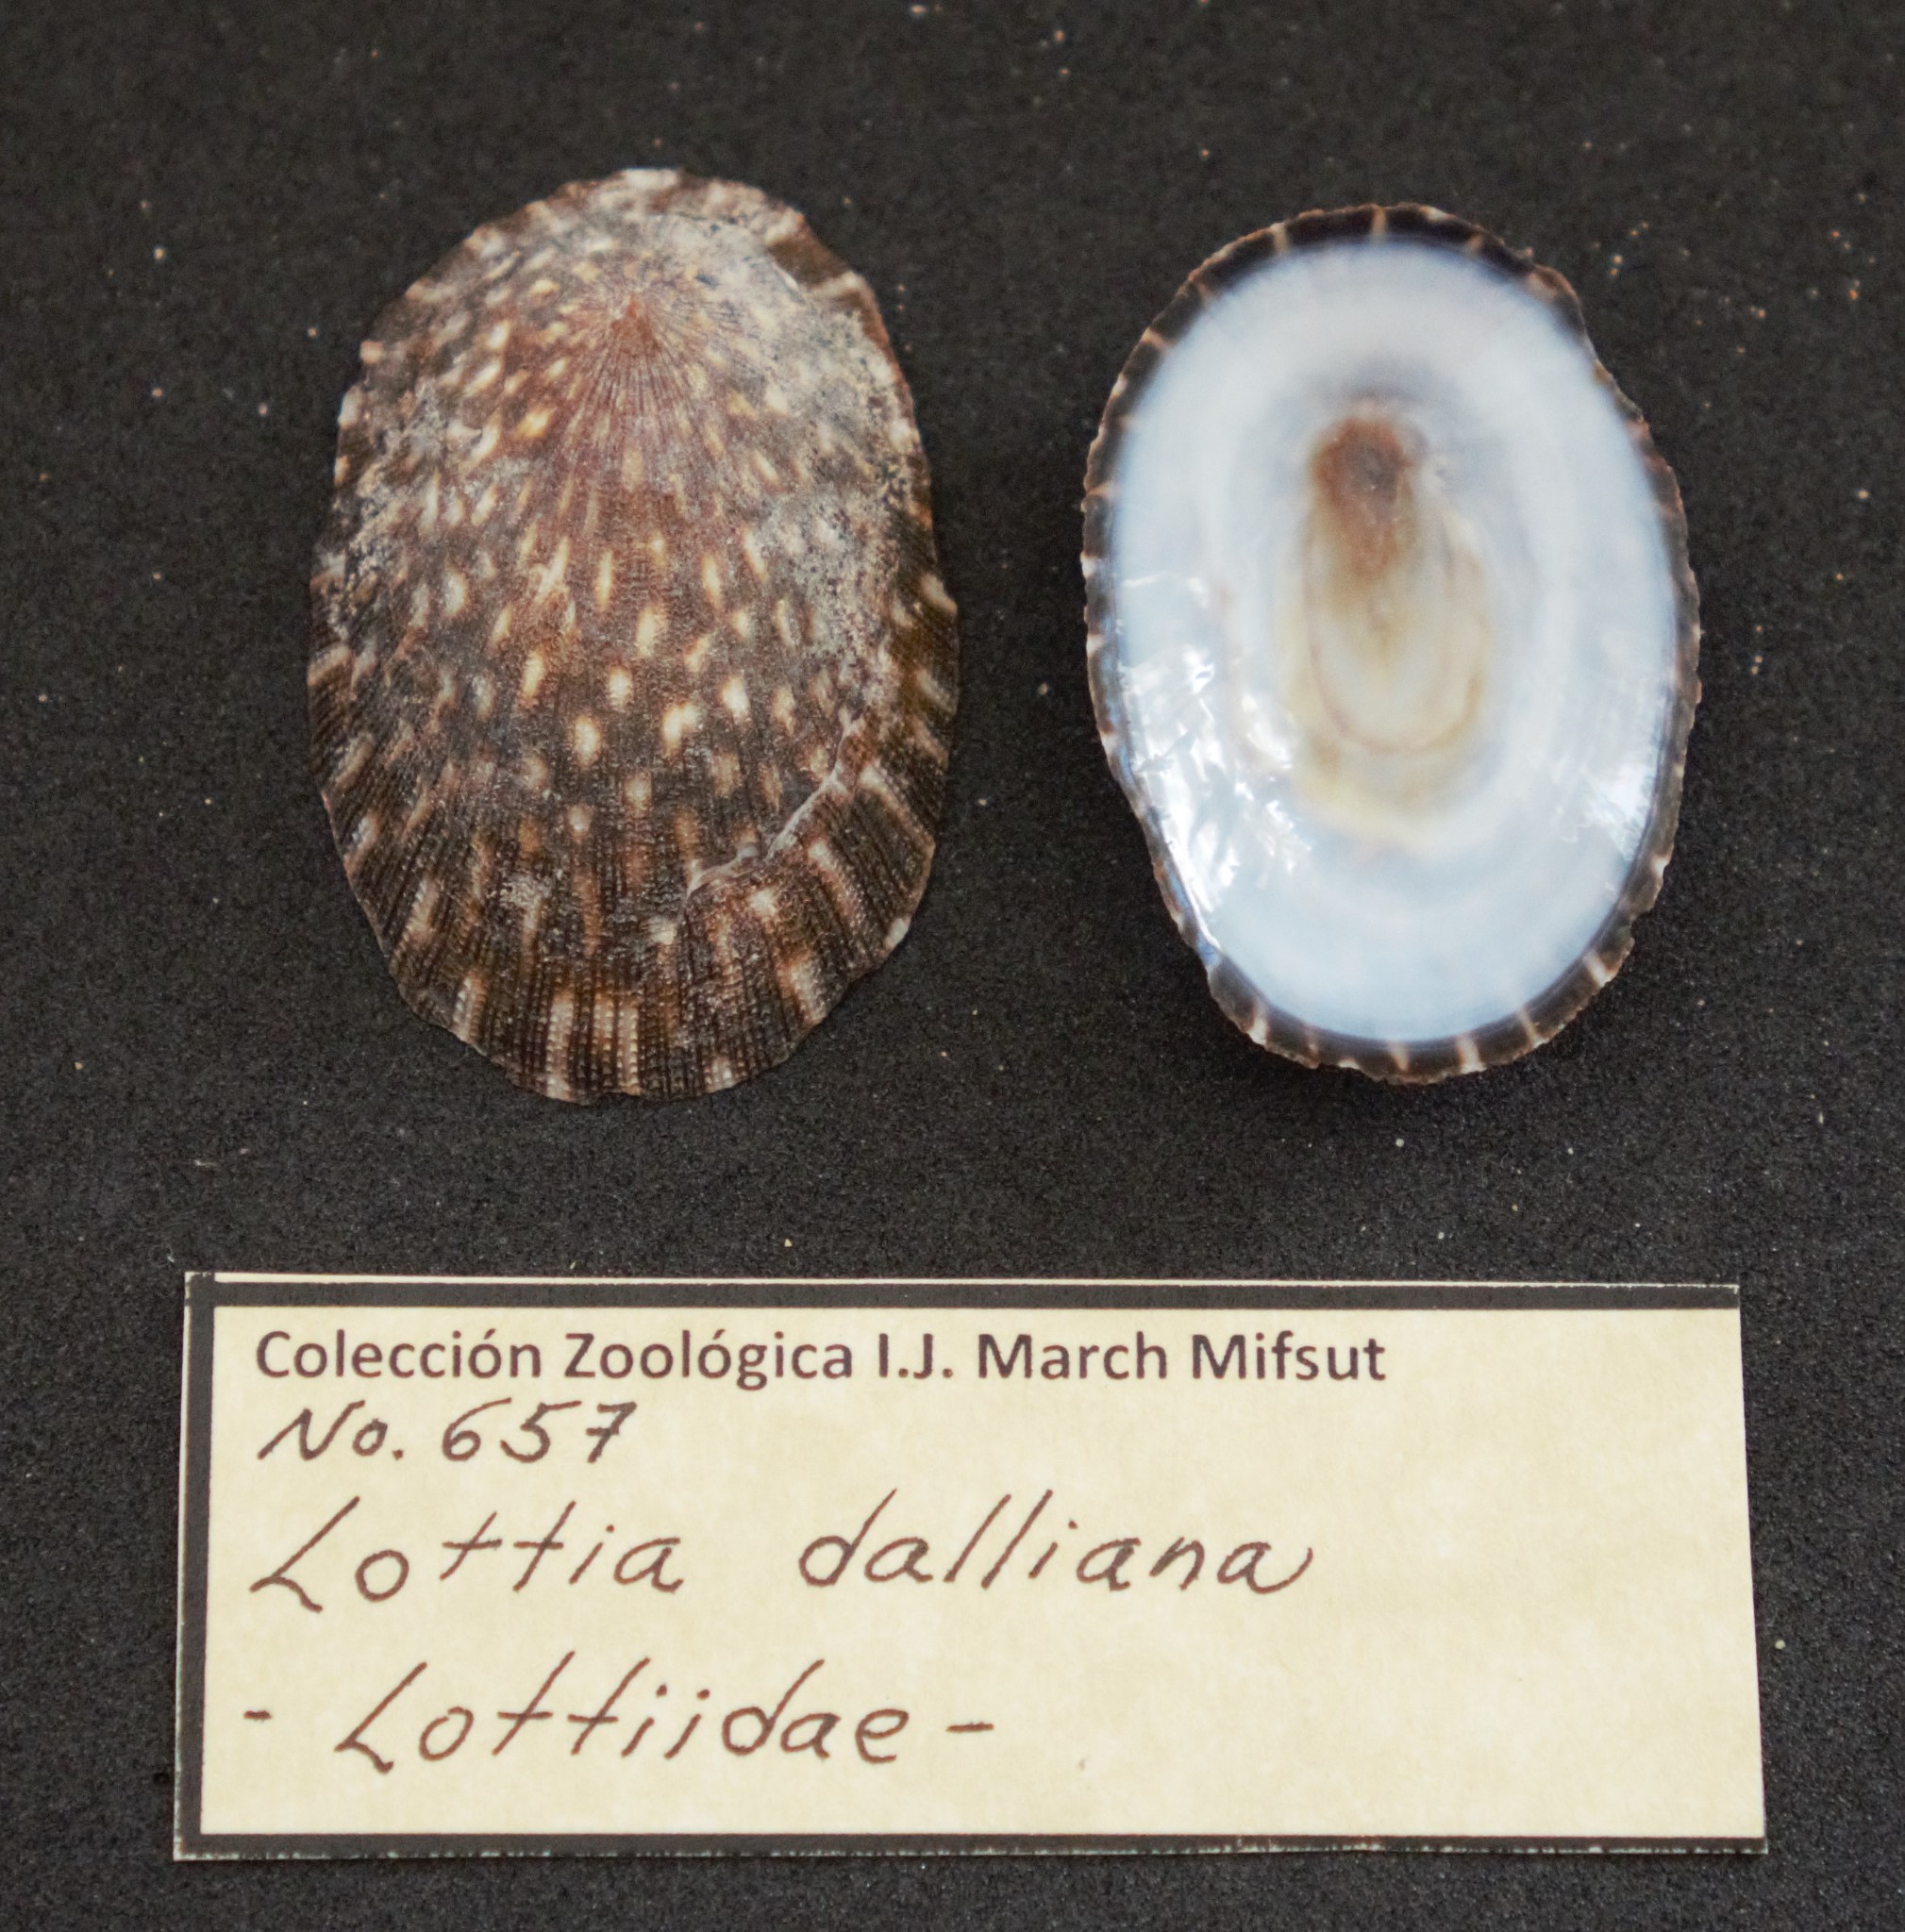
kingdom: Animalia
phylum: Mollusca
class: Gastropoda
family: Lottiidae
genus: Lottia
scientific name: Lottia dalliana
